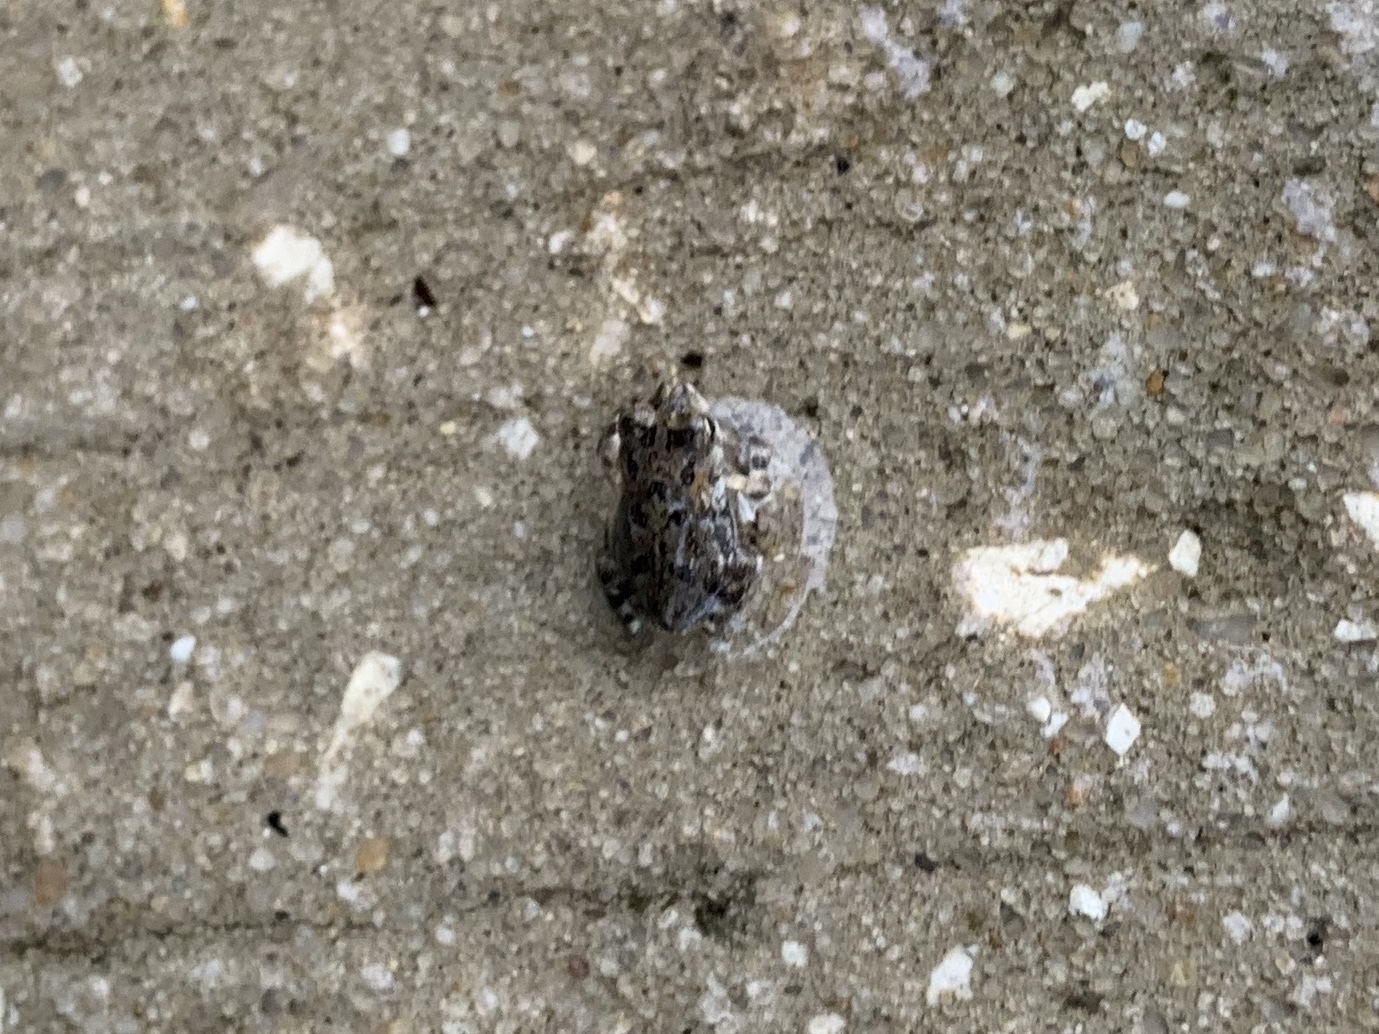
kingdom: Animalia
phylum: Chordata
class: Amphibia
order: Anura
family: Bufonidae
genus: Anaxyrus
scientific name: Anaxyrus terrestris
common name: Southern toad
